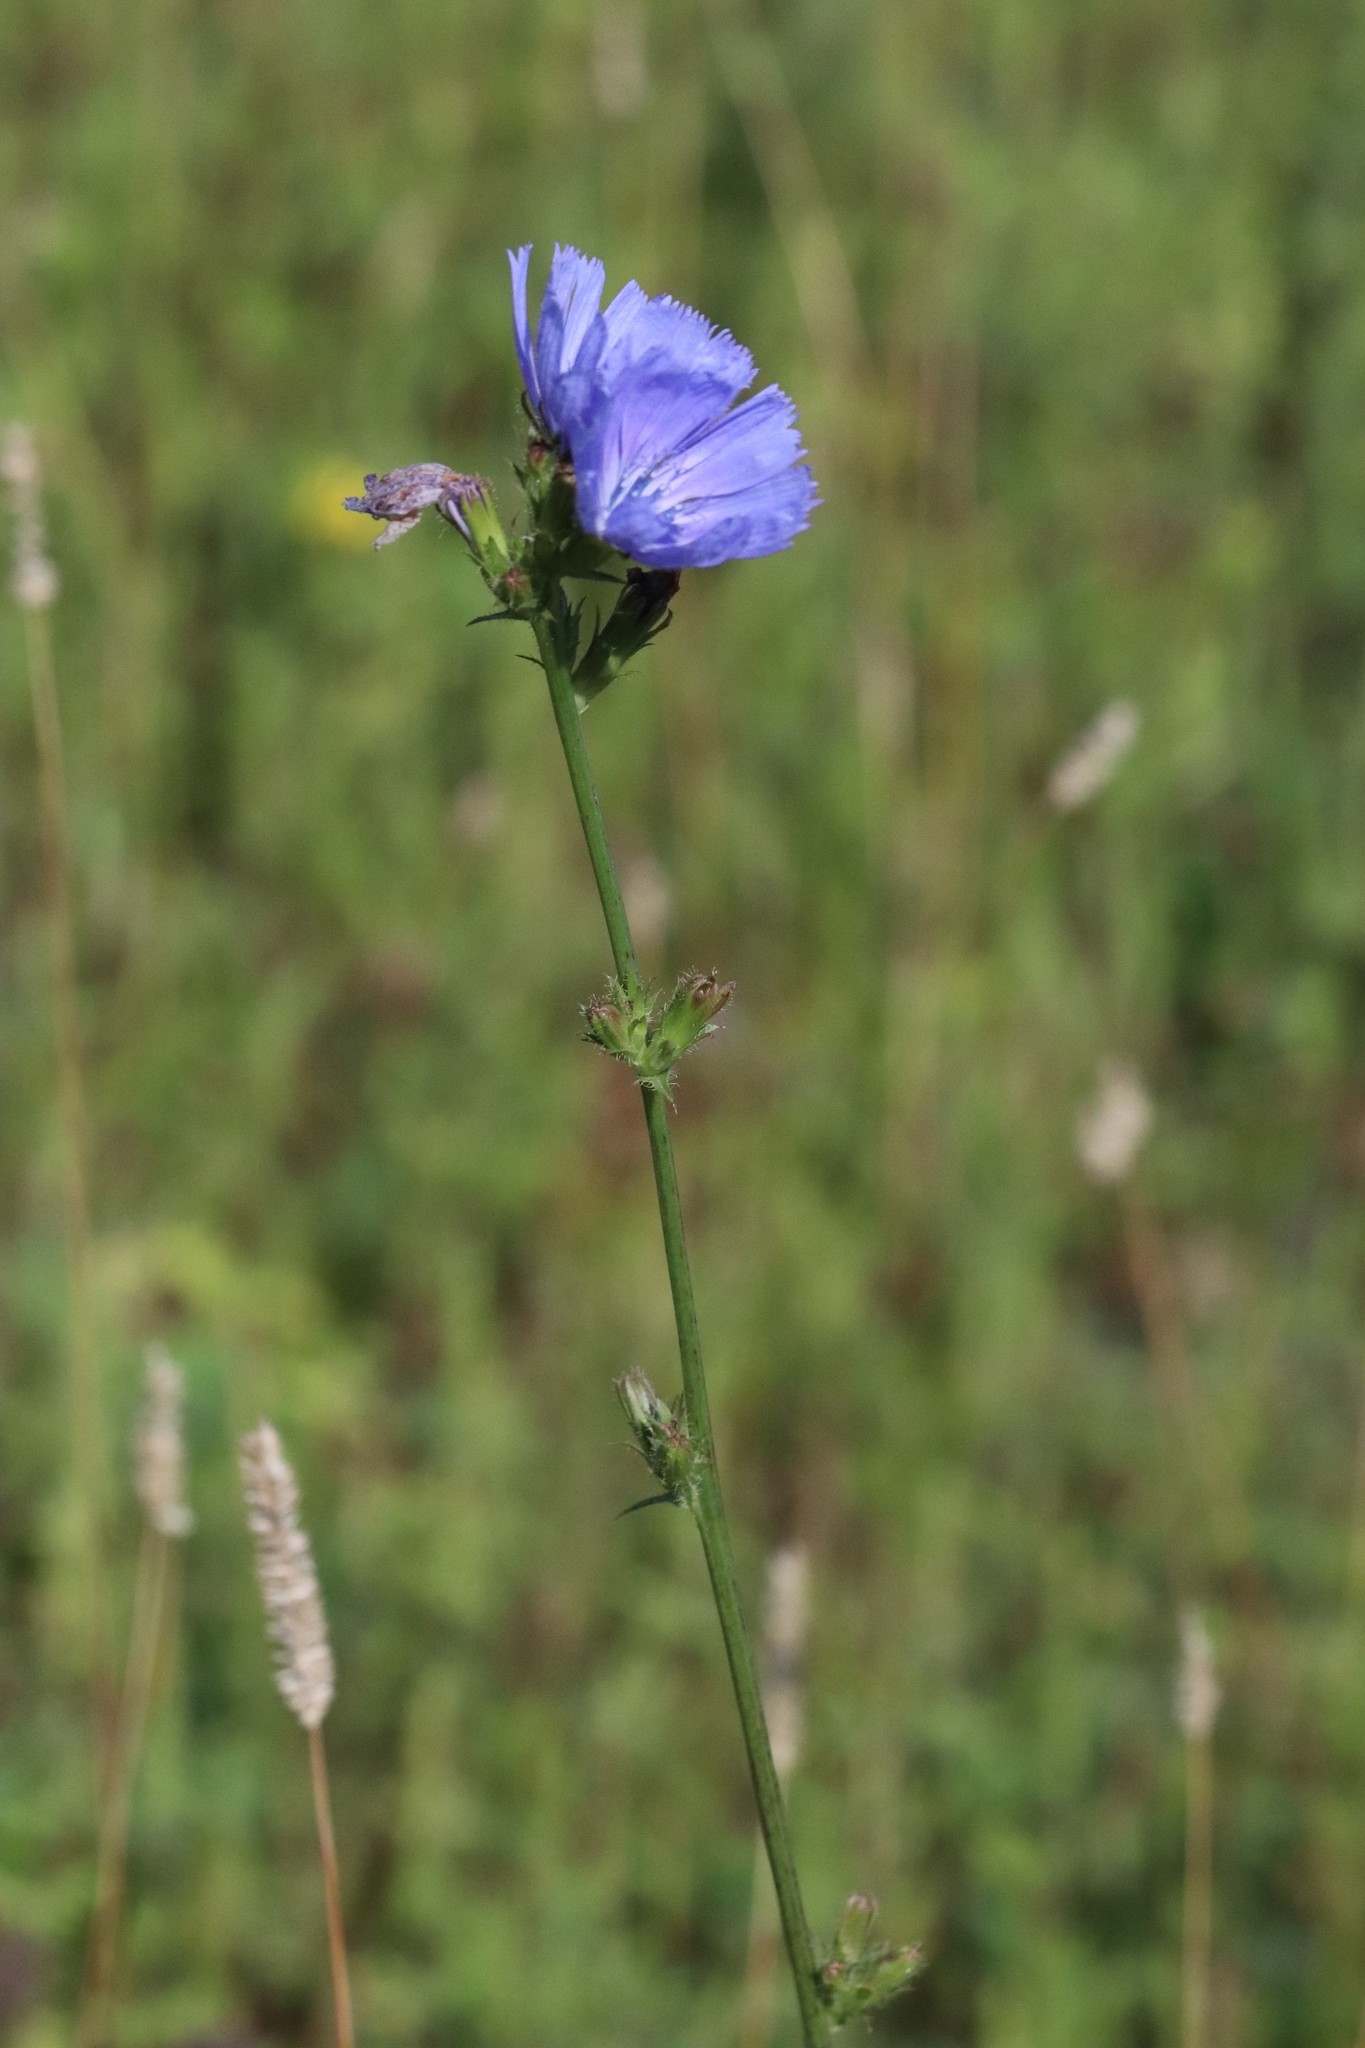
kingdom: Plantae
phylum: Tracheophyta
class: Magnoliopsida
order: Asterales
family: Asteraceae
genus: Cichorium
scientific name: Cichorium intybus
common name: Chicory
